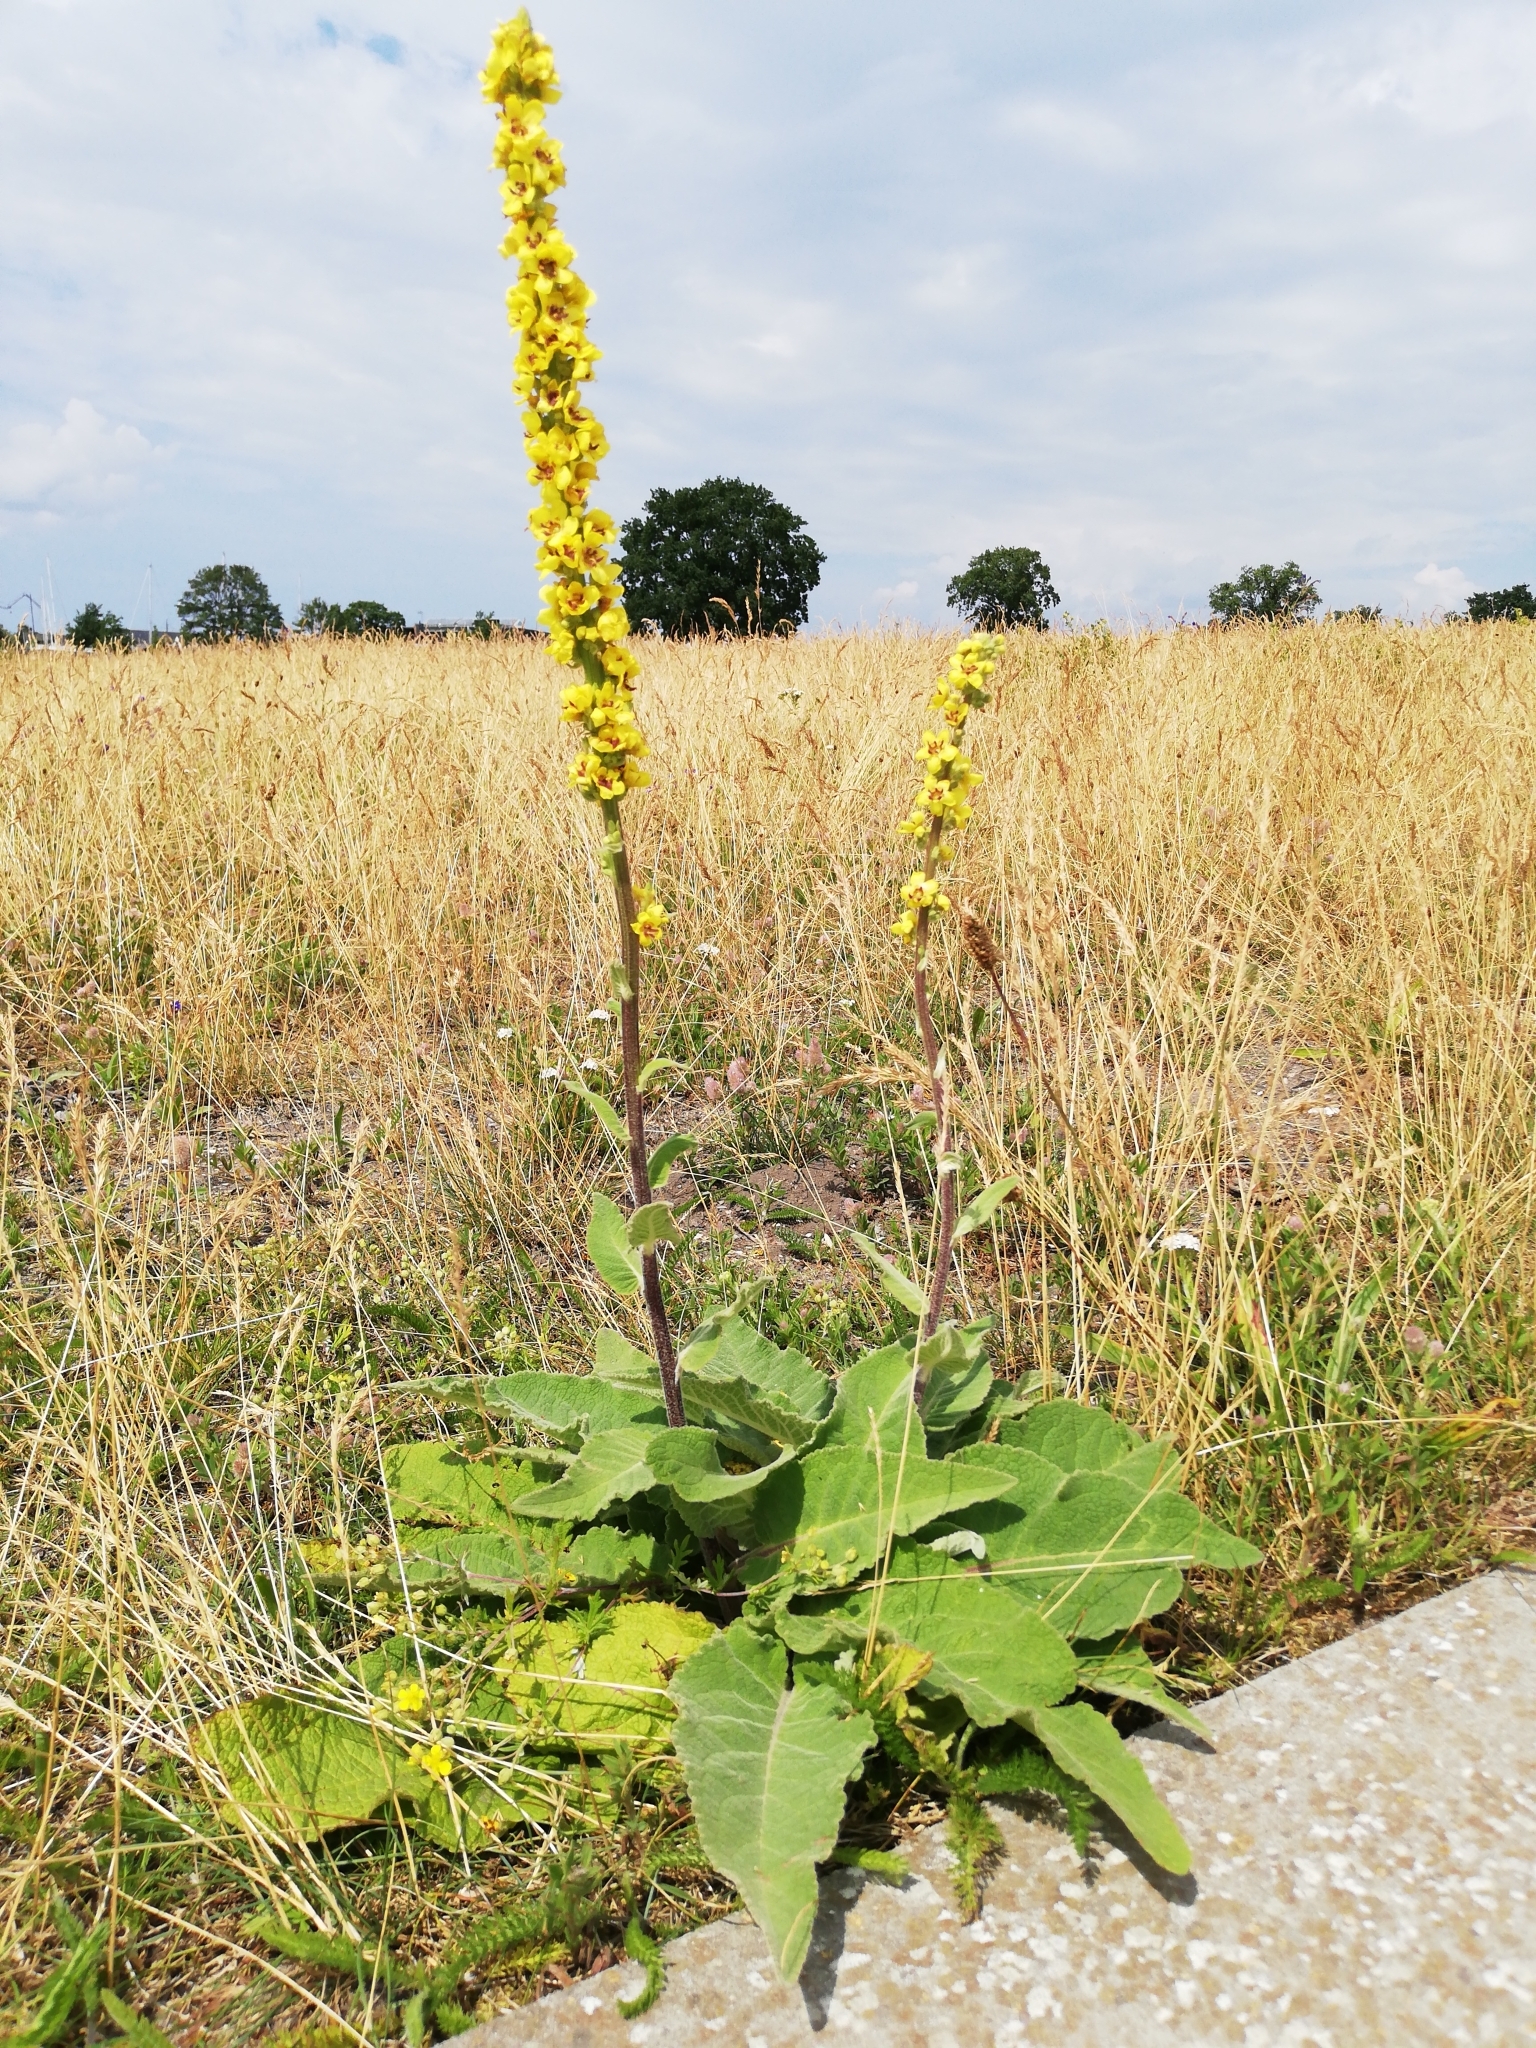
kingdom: Plantae
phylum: Tracheophyta
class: Magnoliopsida
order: Lamiales
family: Scrophulariaceae
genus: Verbascum
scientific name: Verbascum nigrum
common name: Dark mullein
